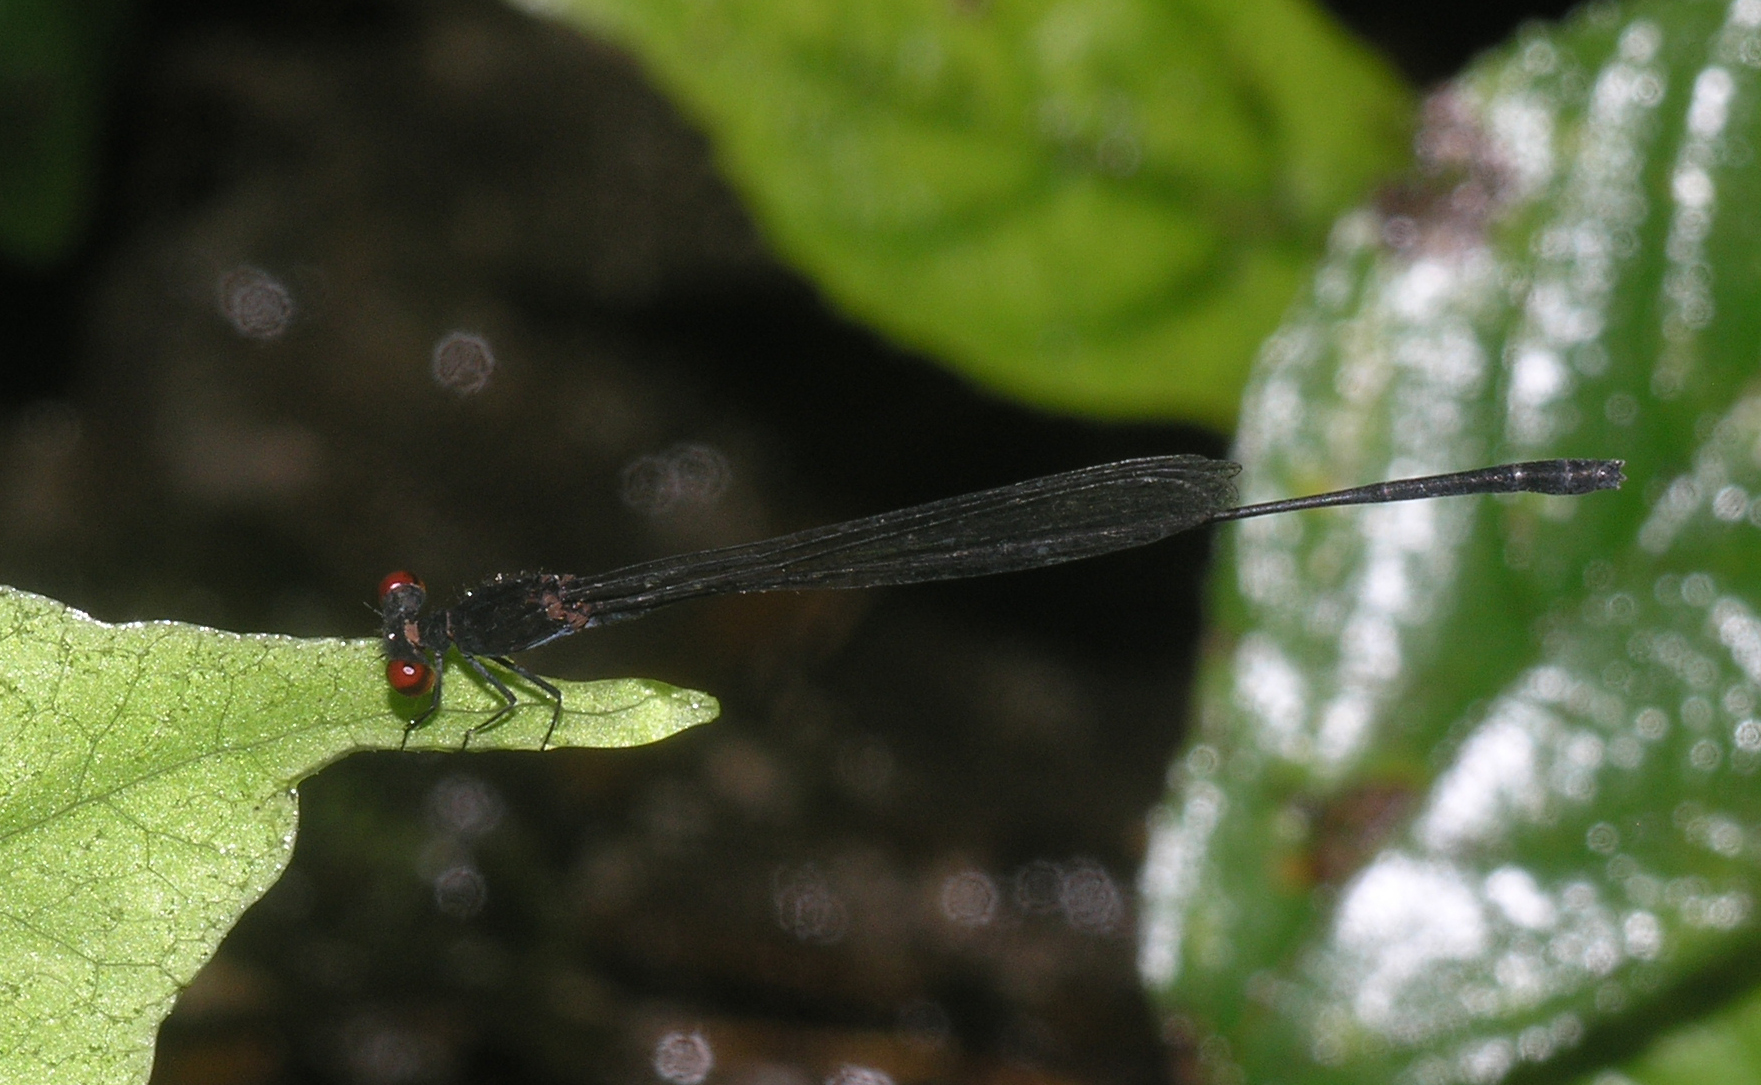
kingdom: Animalia
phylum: Arthropoda
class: Insecta
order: Odonata
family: Platycnemididae
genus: Prodasineura
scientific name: Prodasineura autumnalis
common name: Black threadtail
